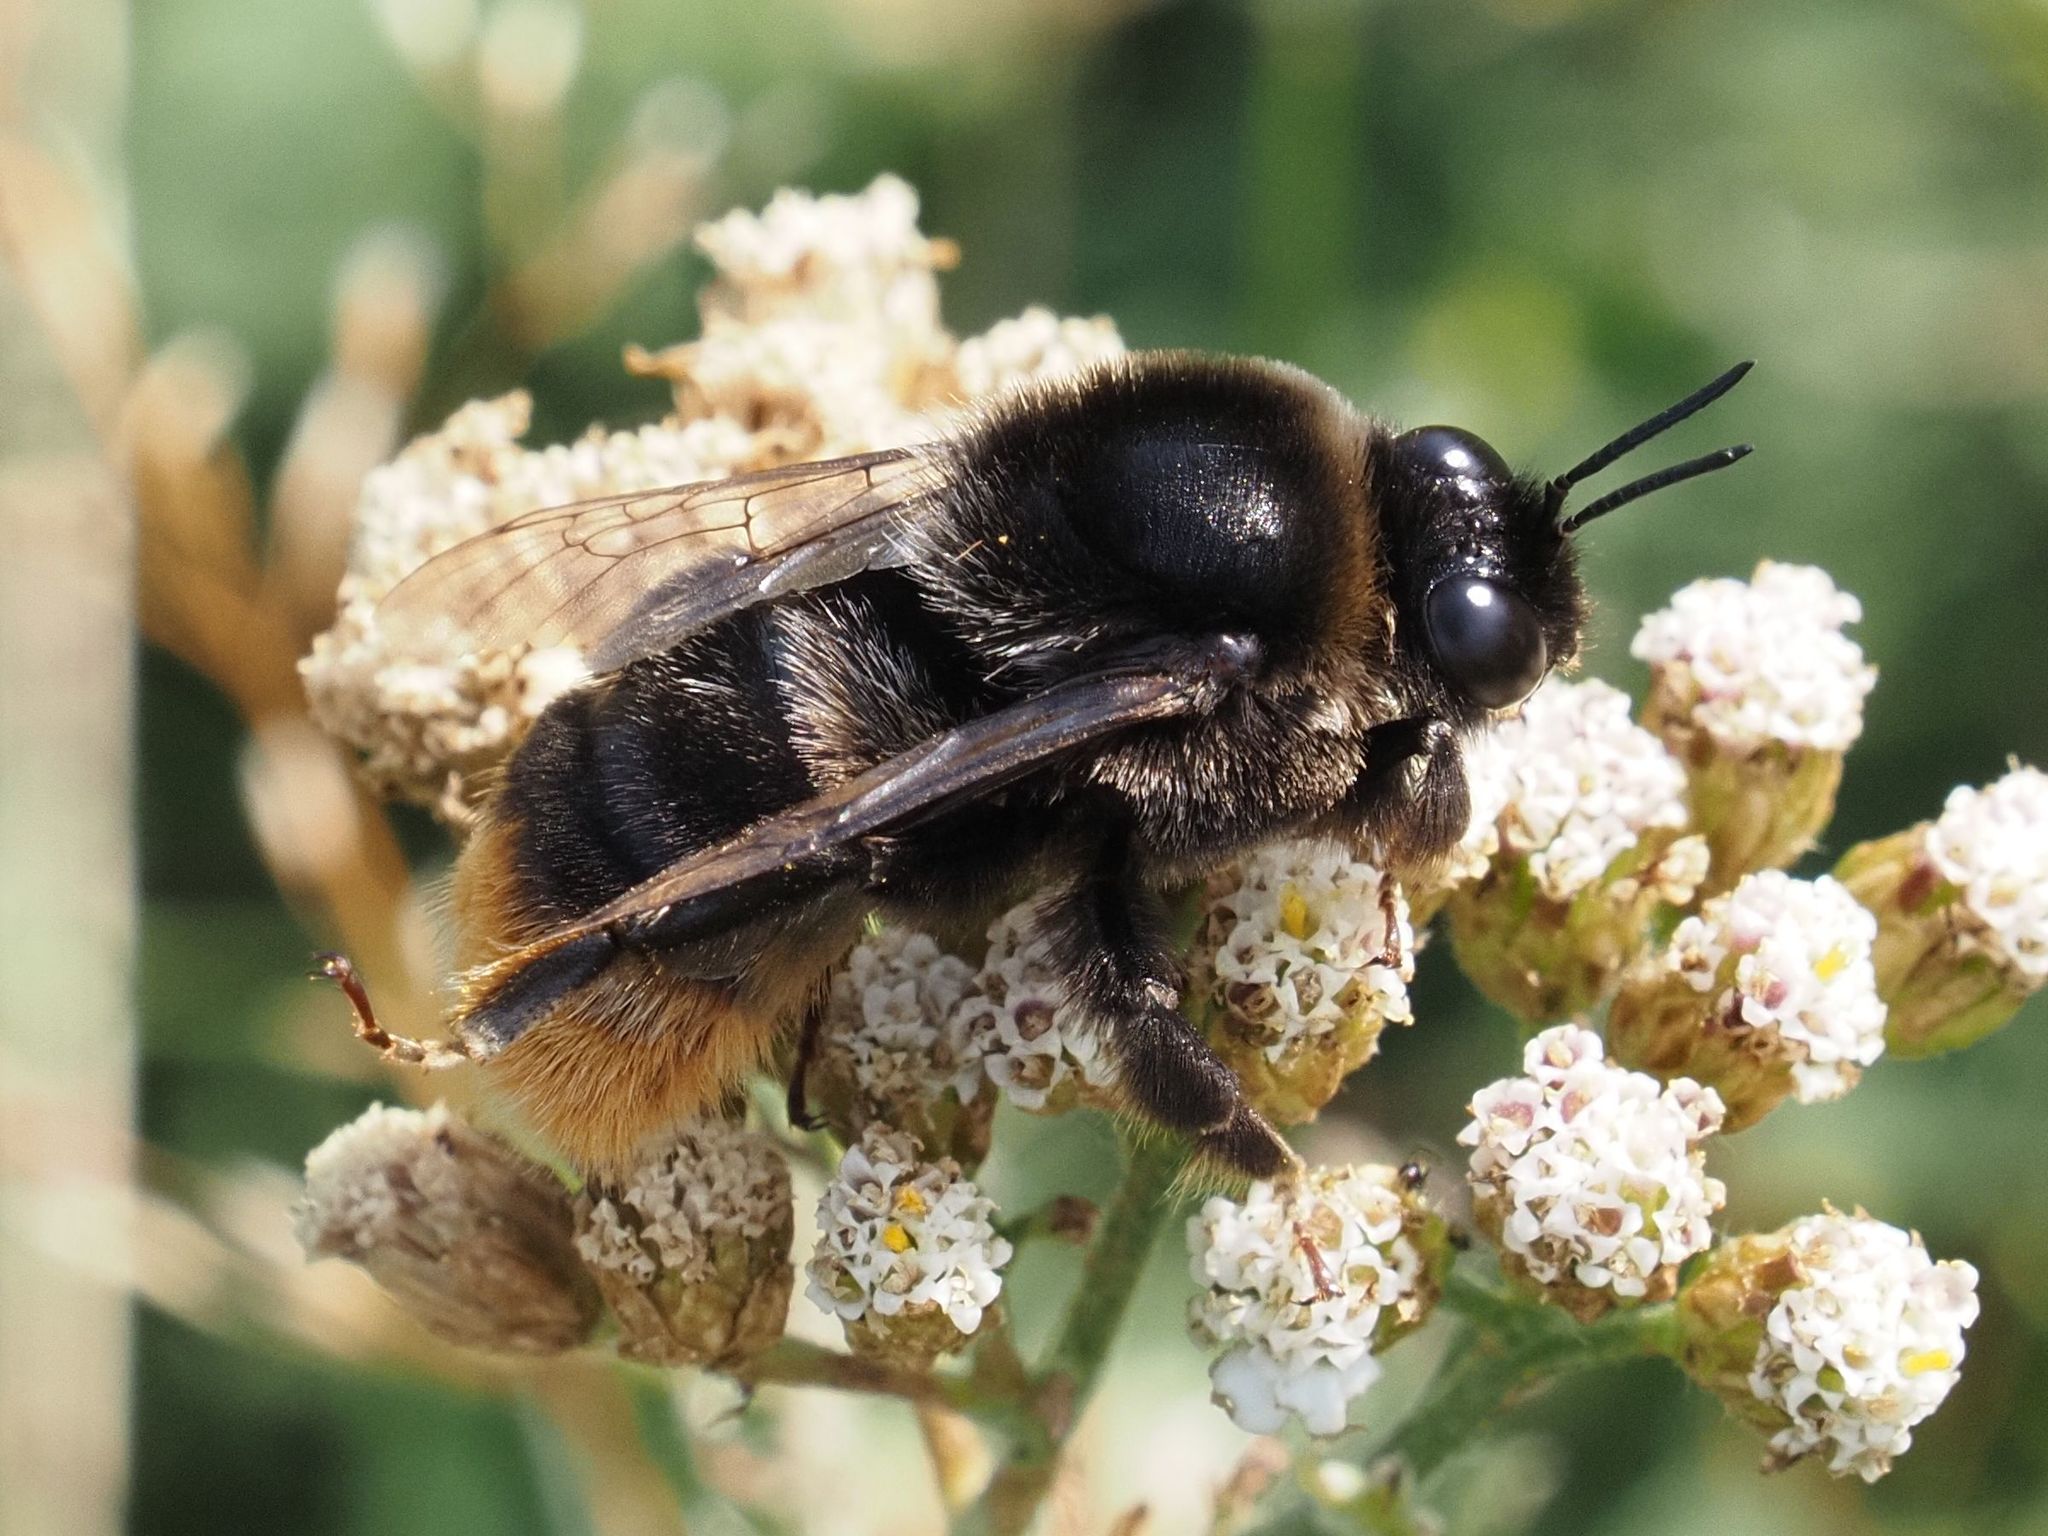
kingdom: Animalia
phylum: Arthropoda
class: Insecta
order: Hymenoptera
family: Apidae
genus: Bombus
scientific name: Bombus confusus
